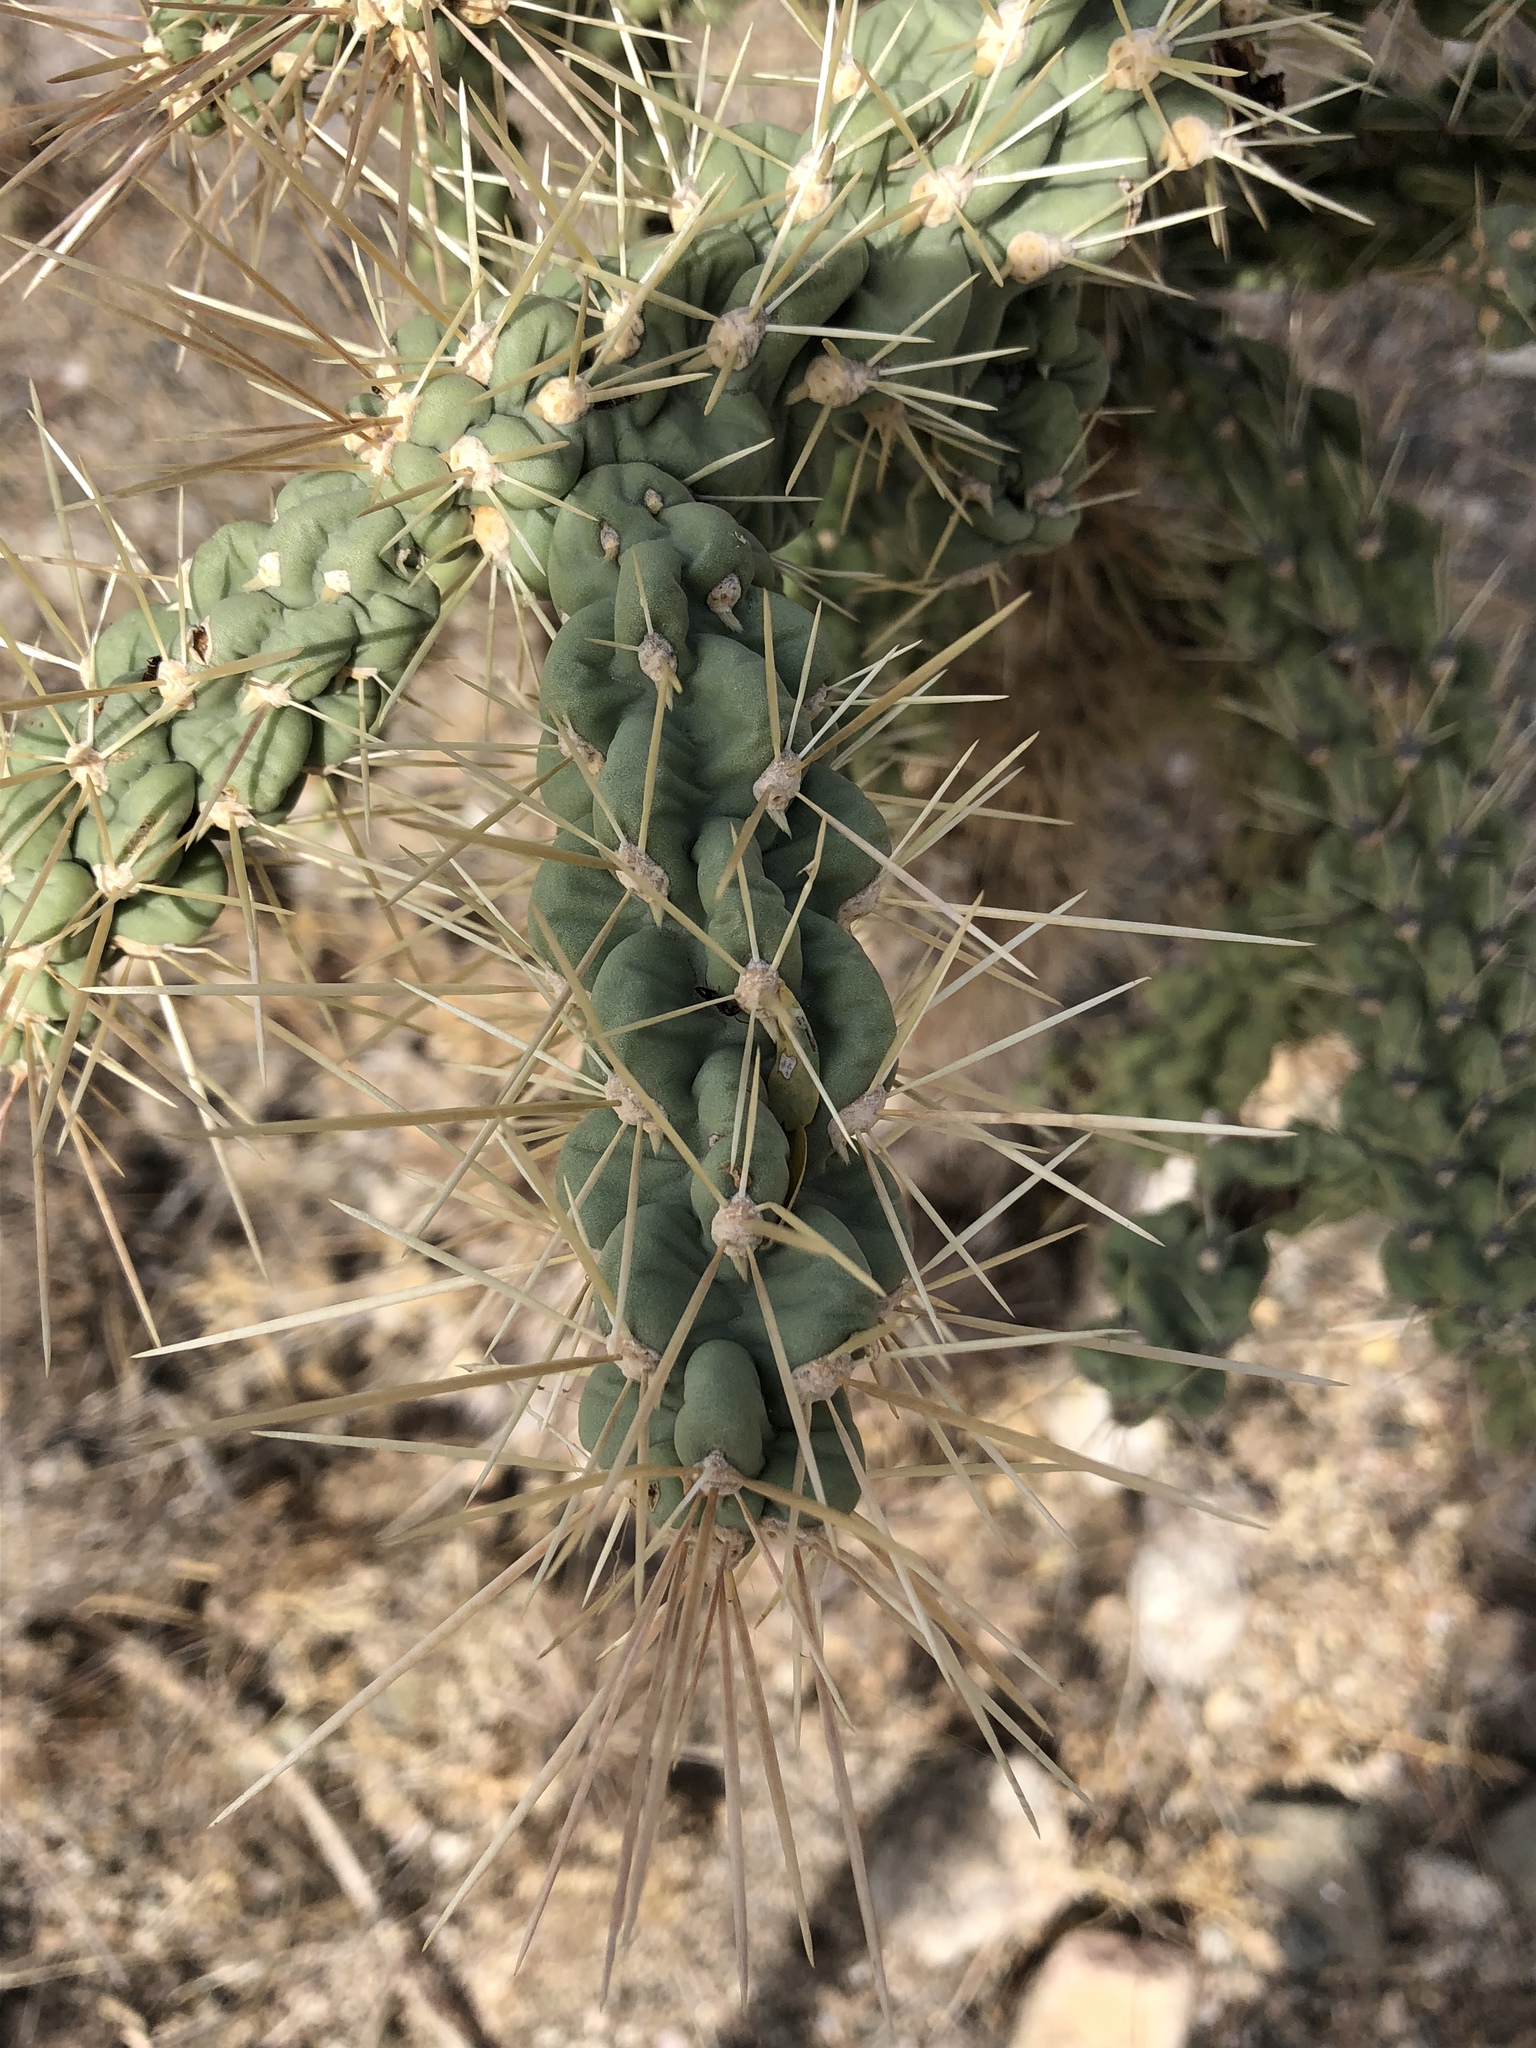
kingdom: Plantae
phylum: Tracheophyta
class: Magnoliopsida
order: Caryophyllales
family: Cactaceae
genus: Cylindropuntia
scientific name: Cylindropuntia fulgida
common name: Jumping cholla
